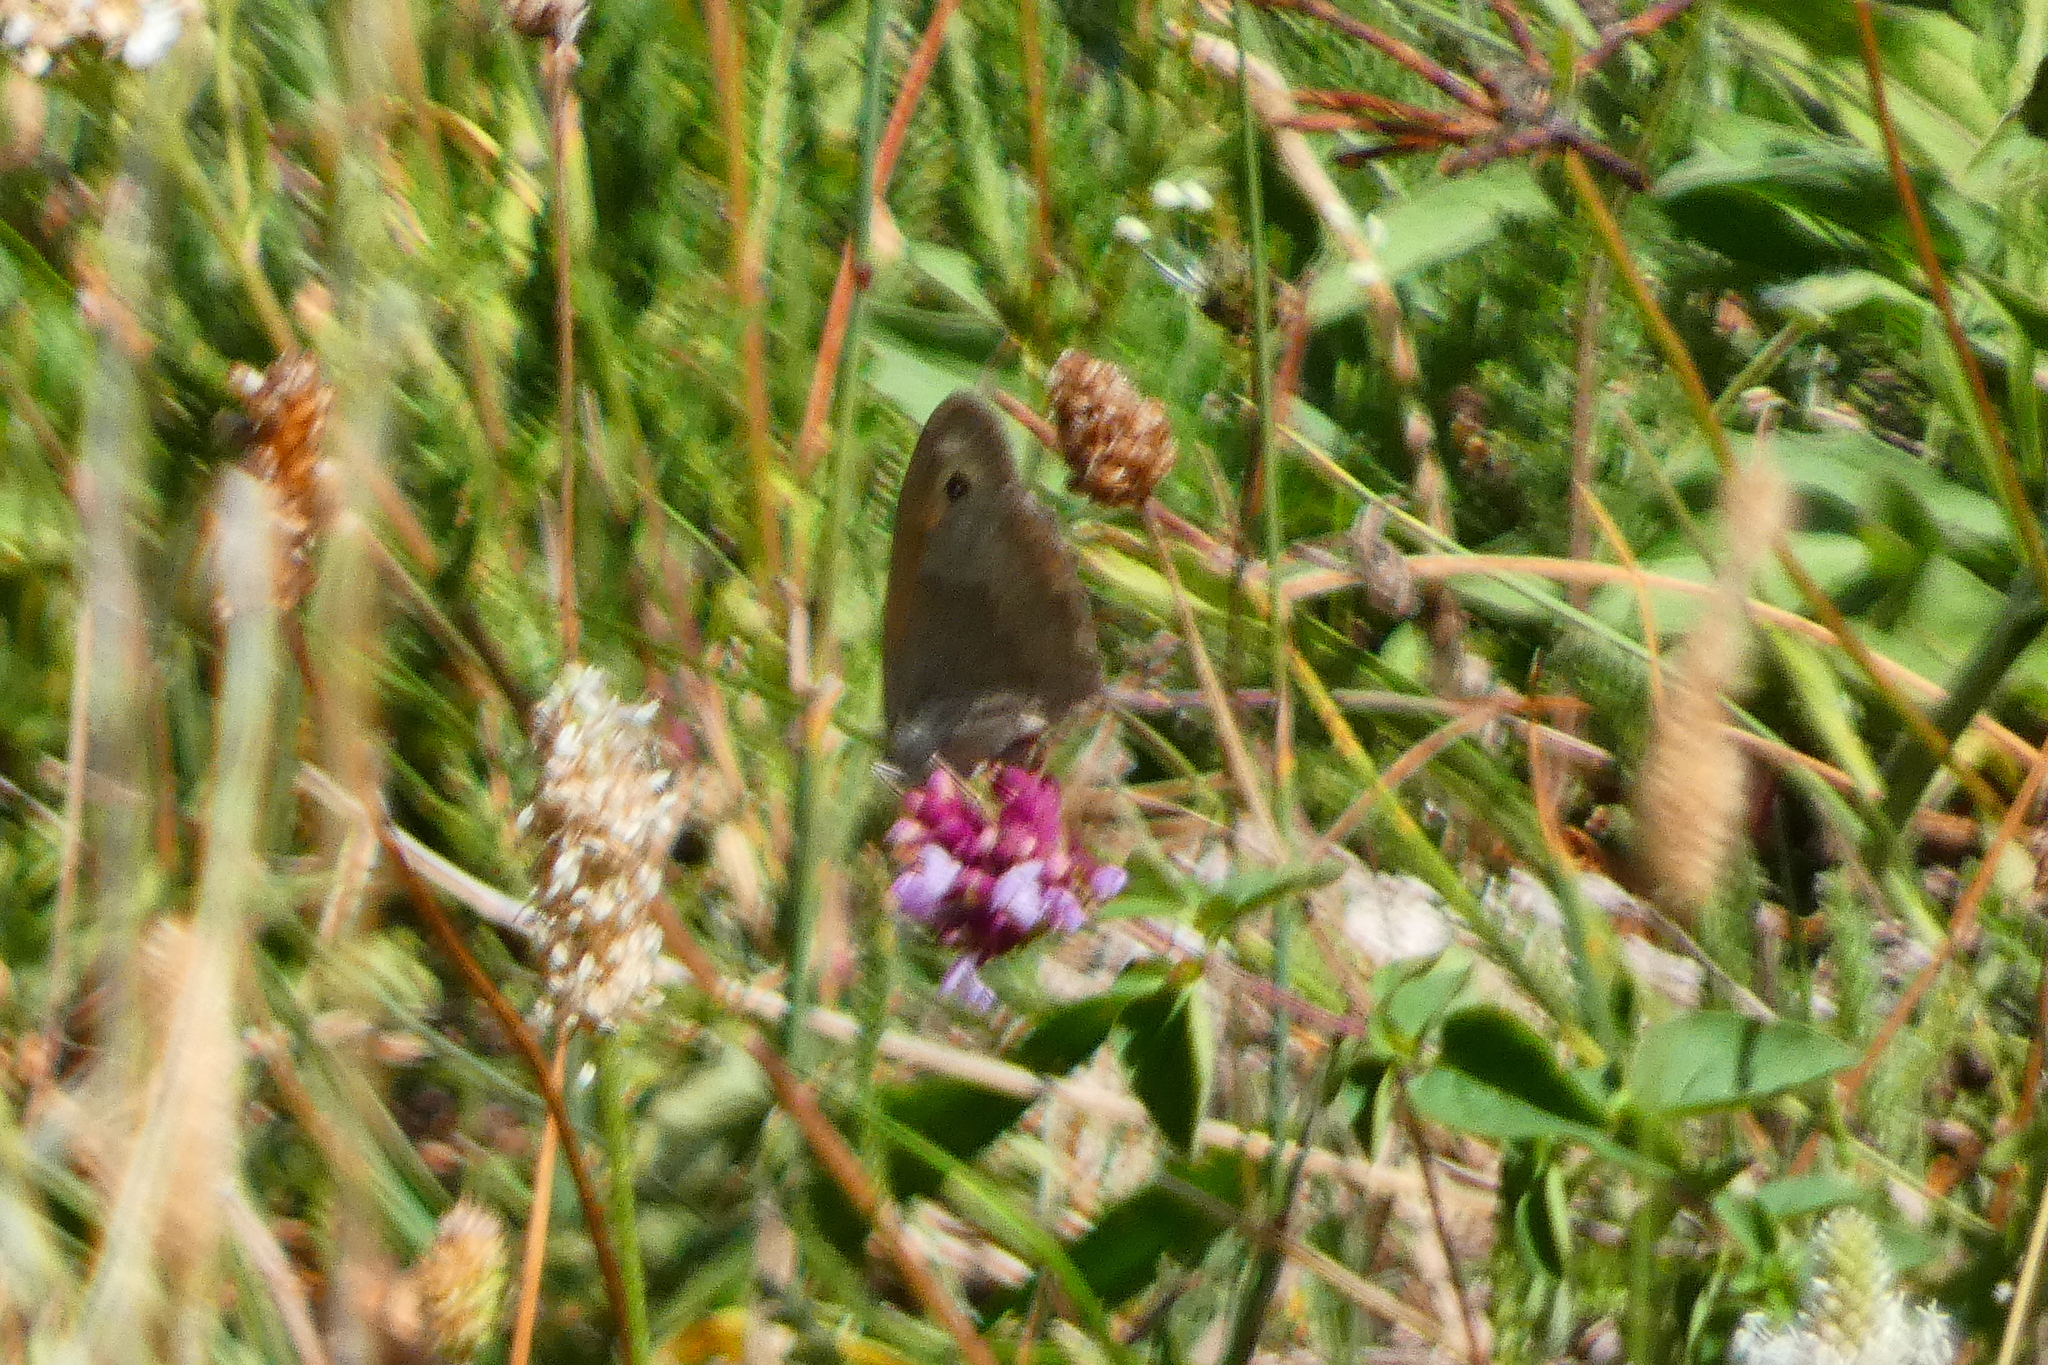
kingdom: Animalia
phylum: Arthropoda
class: Insecta
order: Lepidoptera
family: Nymphalidae
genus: Maniola
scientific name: Maniola jurtina
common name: Meadow brown
